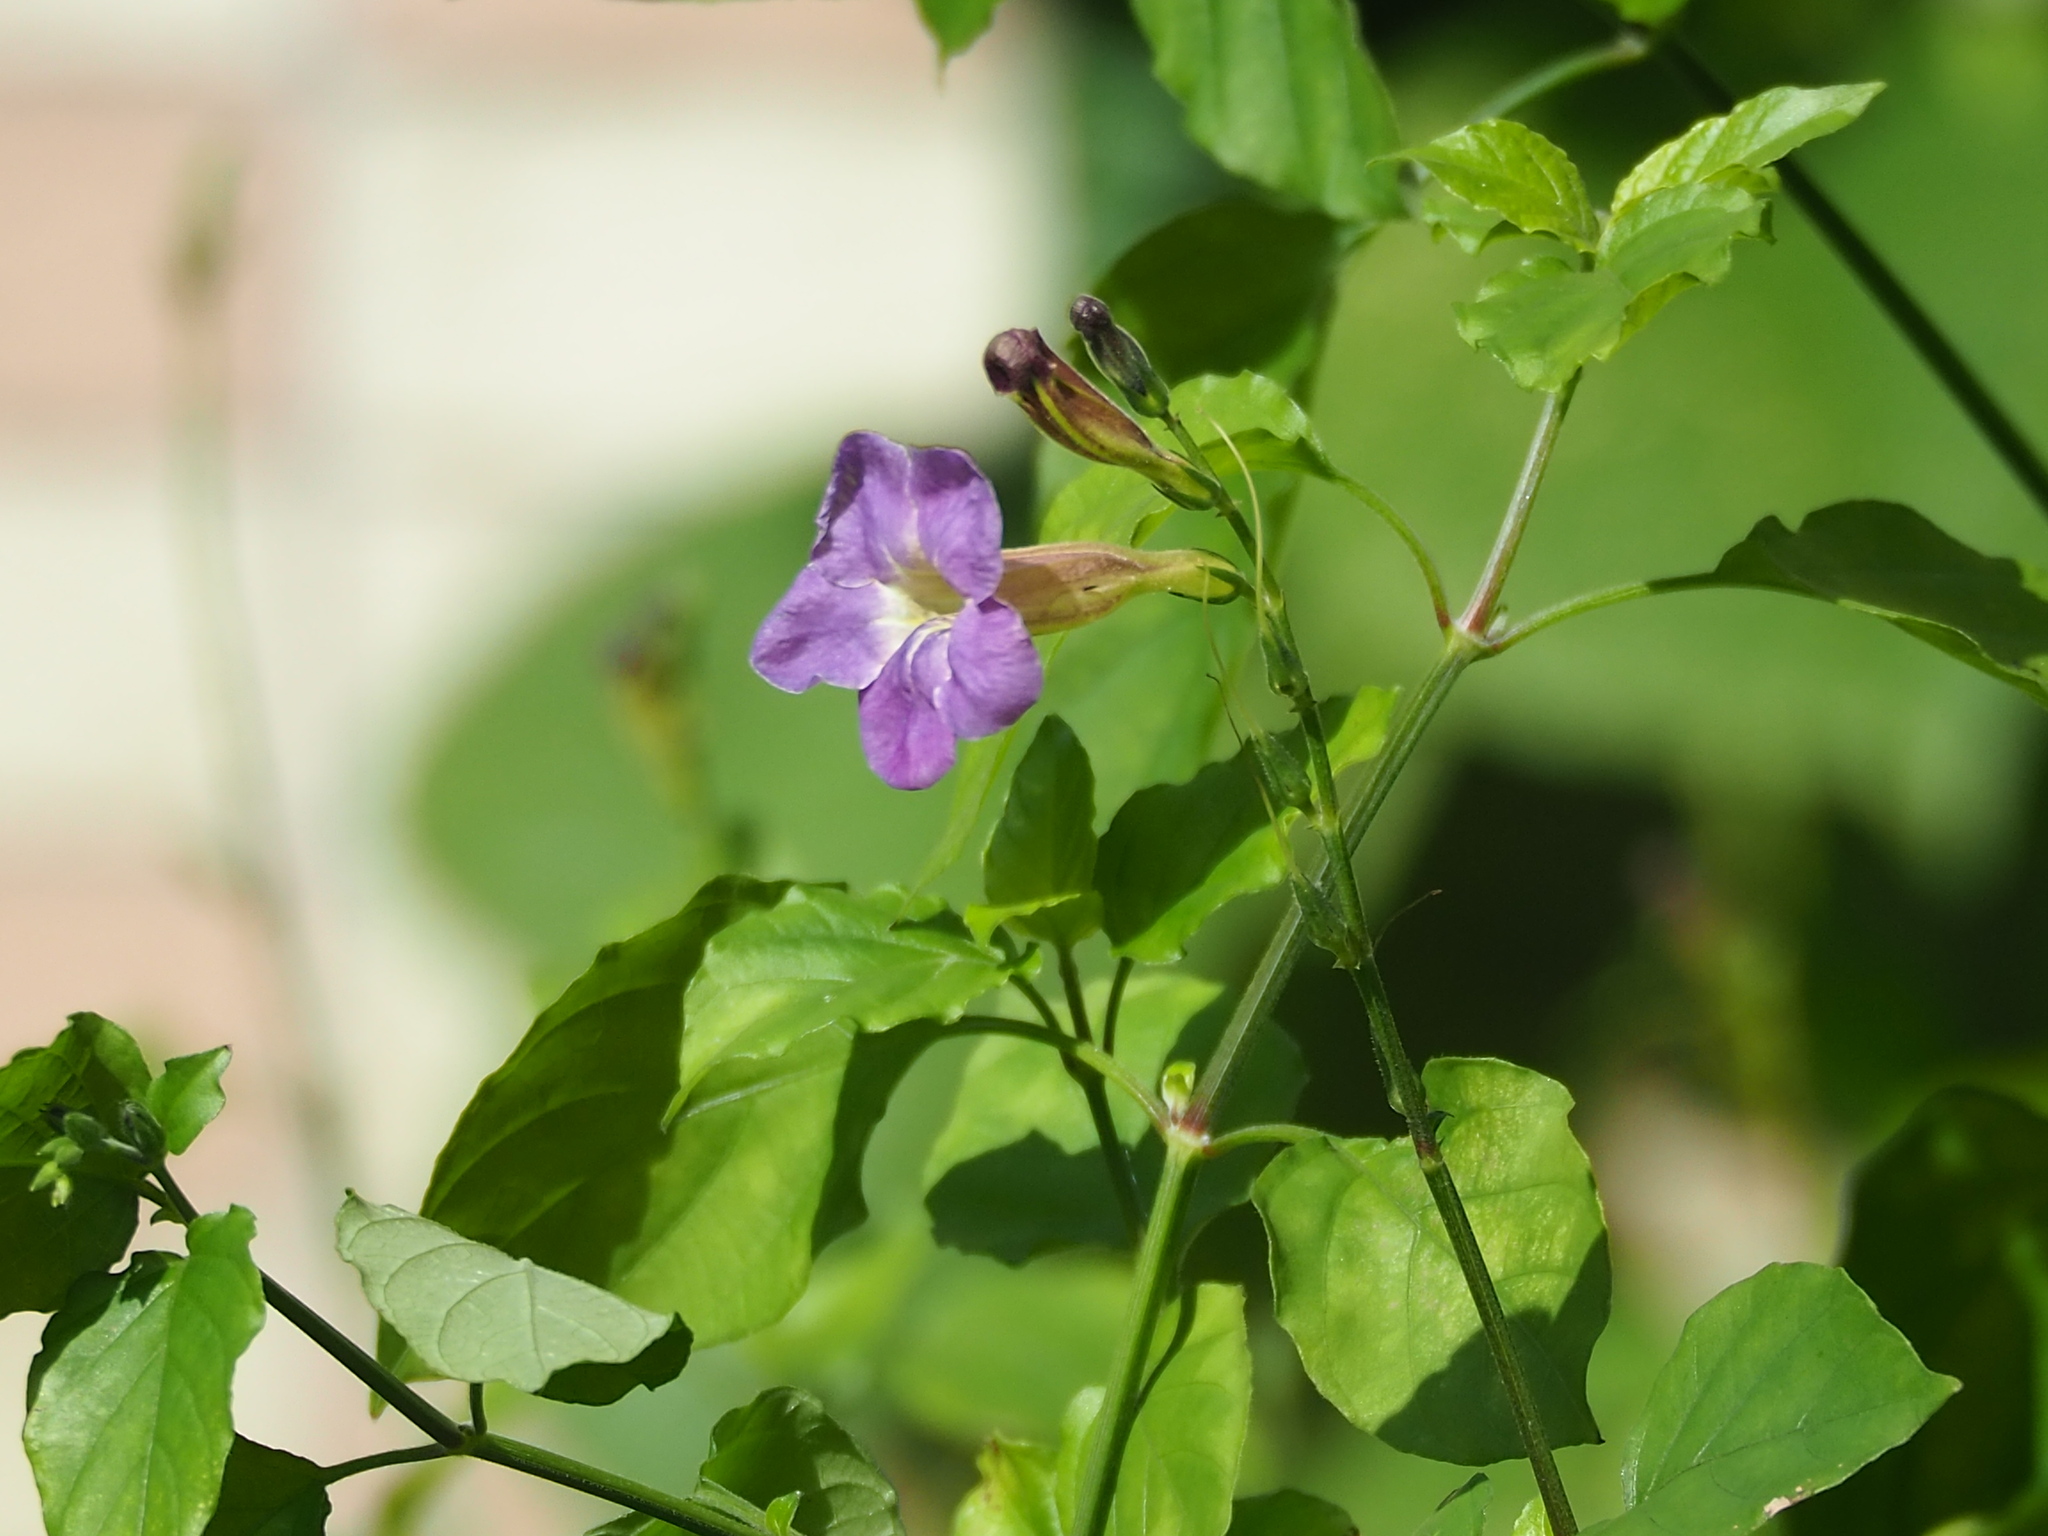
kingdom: Plantae
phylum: Tracheophyta
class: Magnoliopsida
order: Lamiales
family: Acanthaceae
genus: Asystasia
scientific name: Asystasia gangetica
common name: Chinese violet
